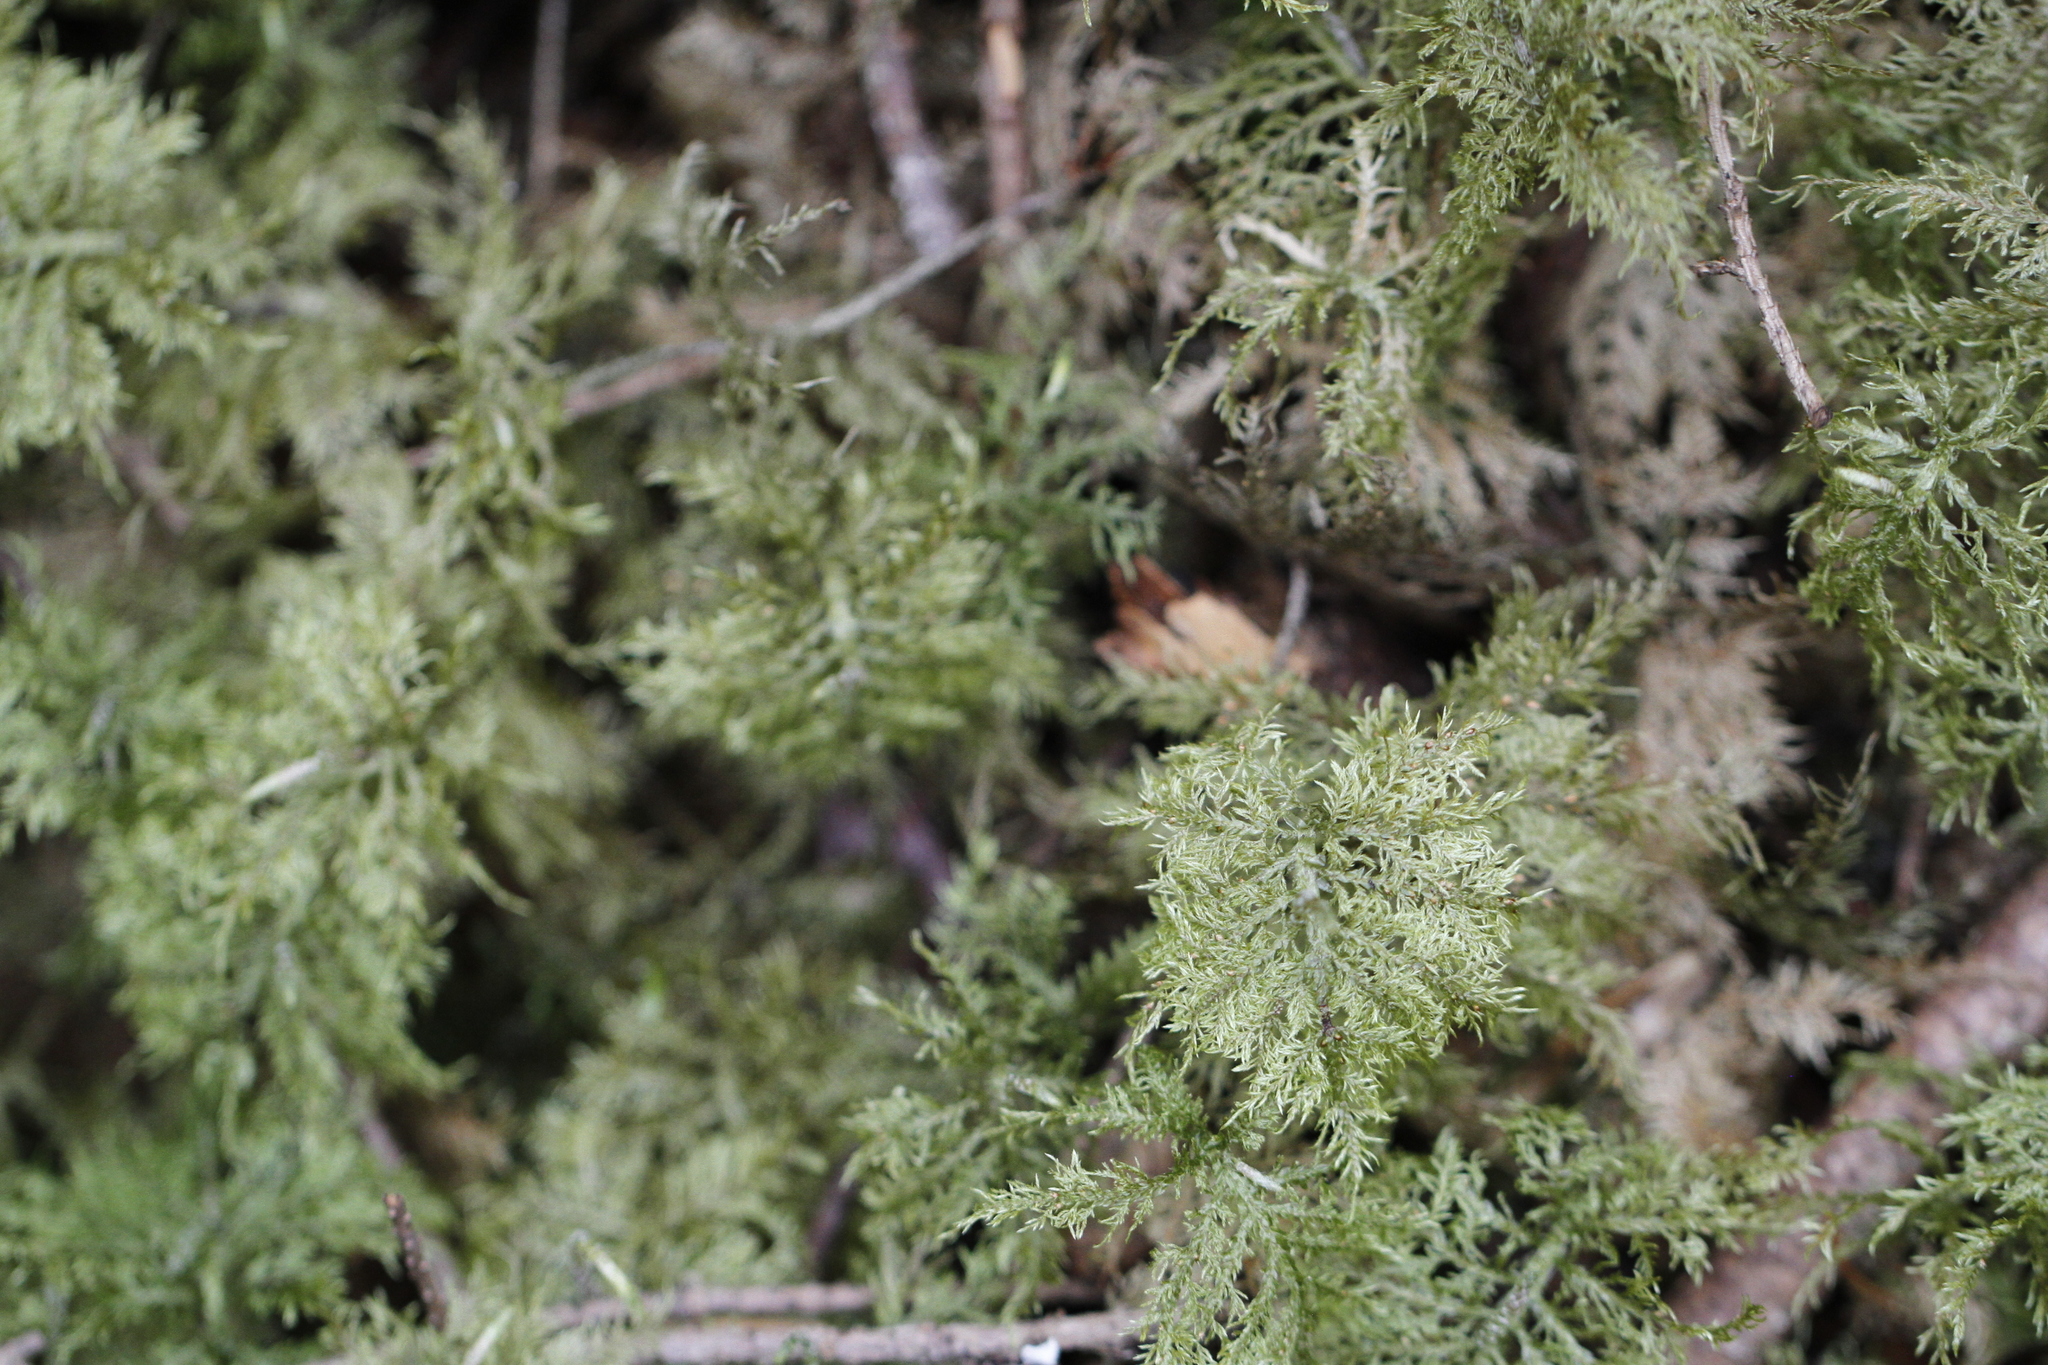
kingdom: Plantae
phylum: Bryophyta
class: Bryopsida
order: Hypnales
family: Hylocomiaceae
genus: Hylocomium
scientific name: Hylocomium splendens
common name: Stairstep moss
